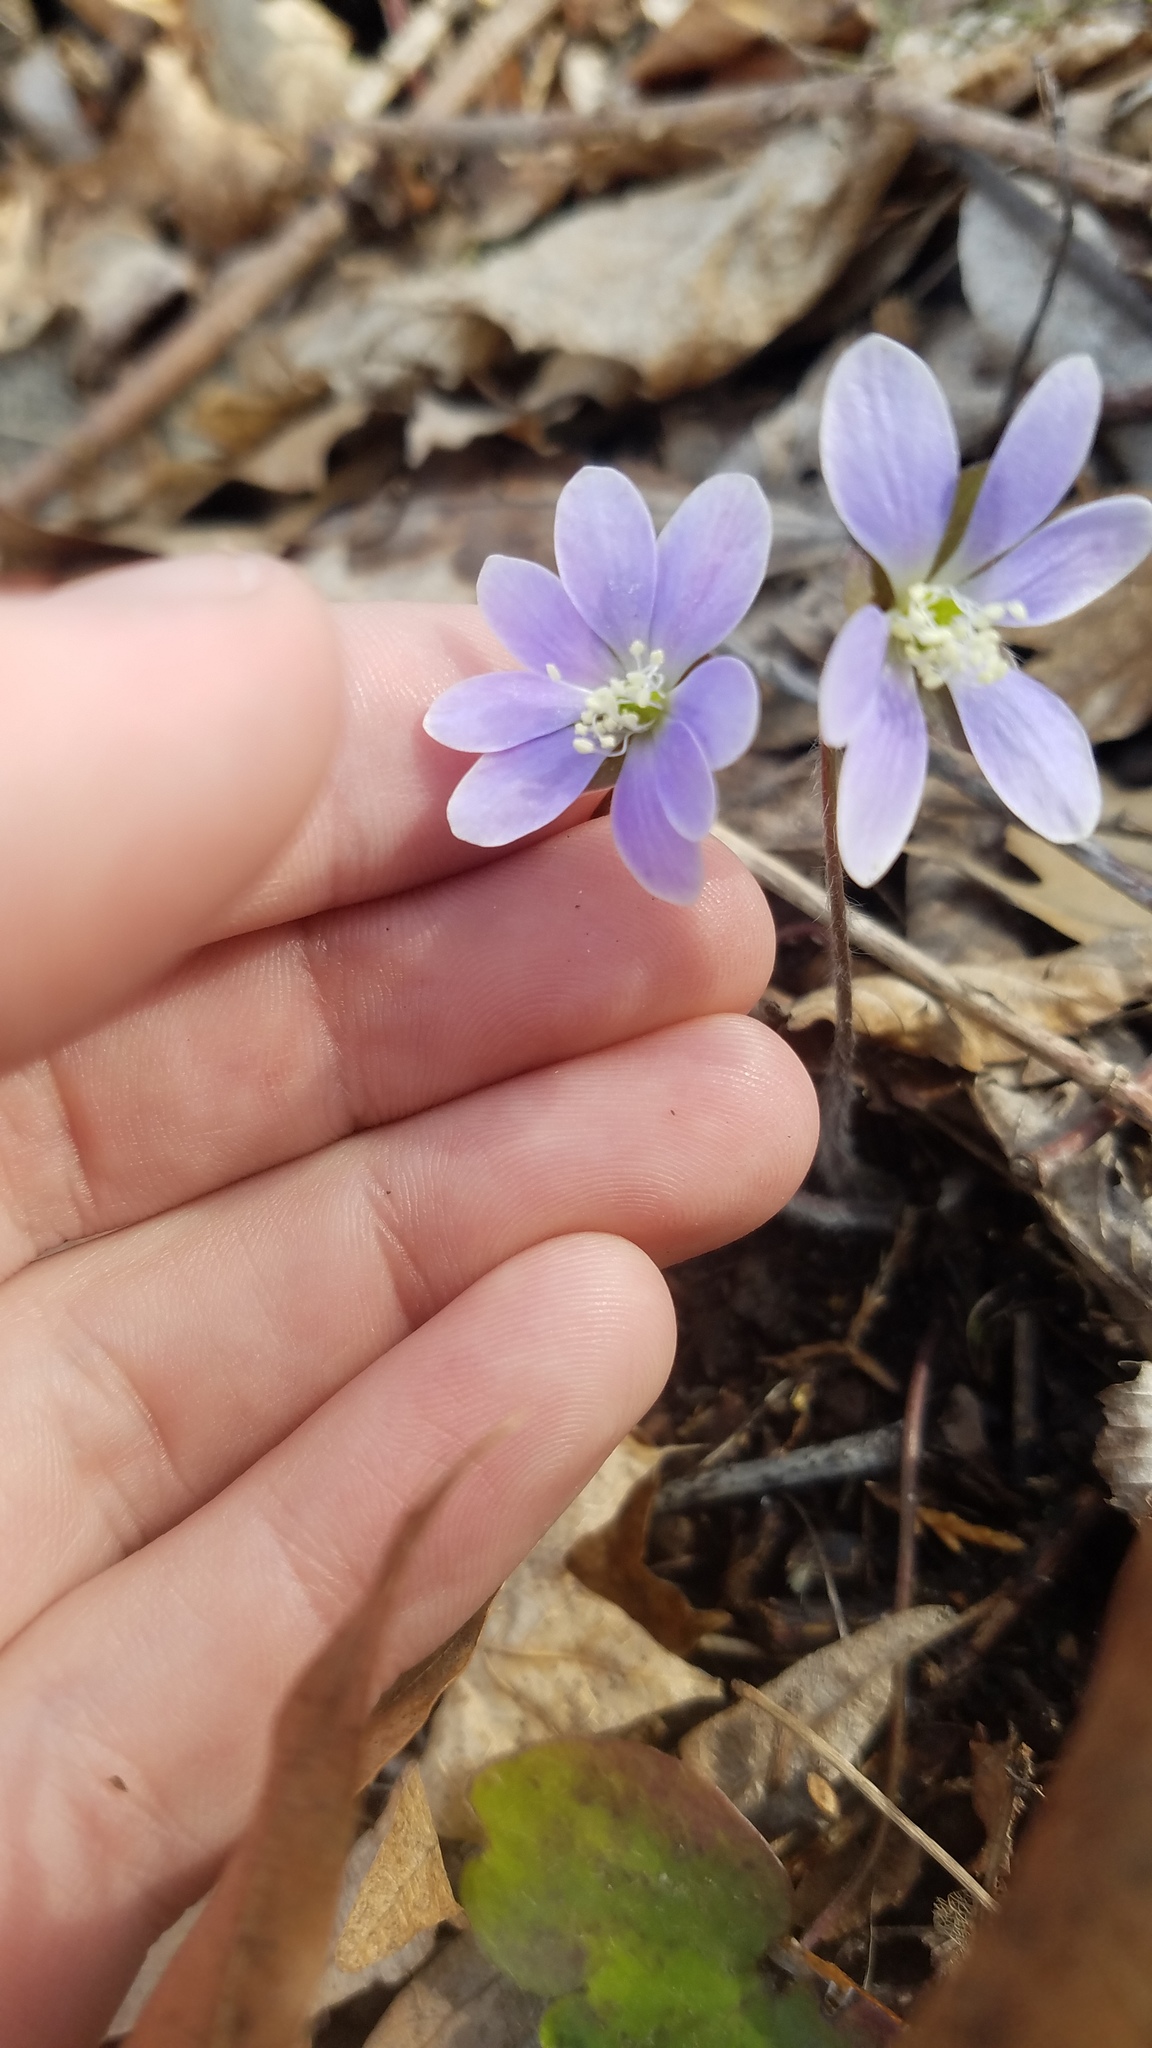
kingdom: Plantae
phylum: Tracheophyta
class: Magnoliopsida
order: Ranunculales
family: Ranunculaceae
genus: Hepatica
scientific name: Hepatica americana
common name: American hepatica
